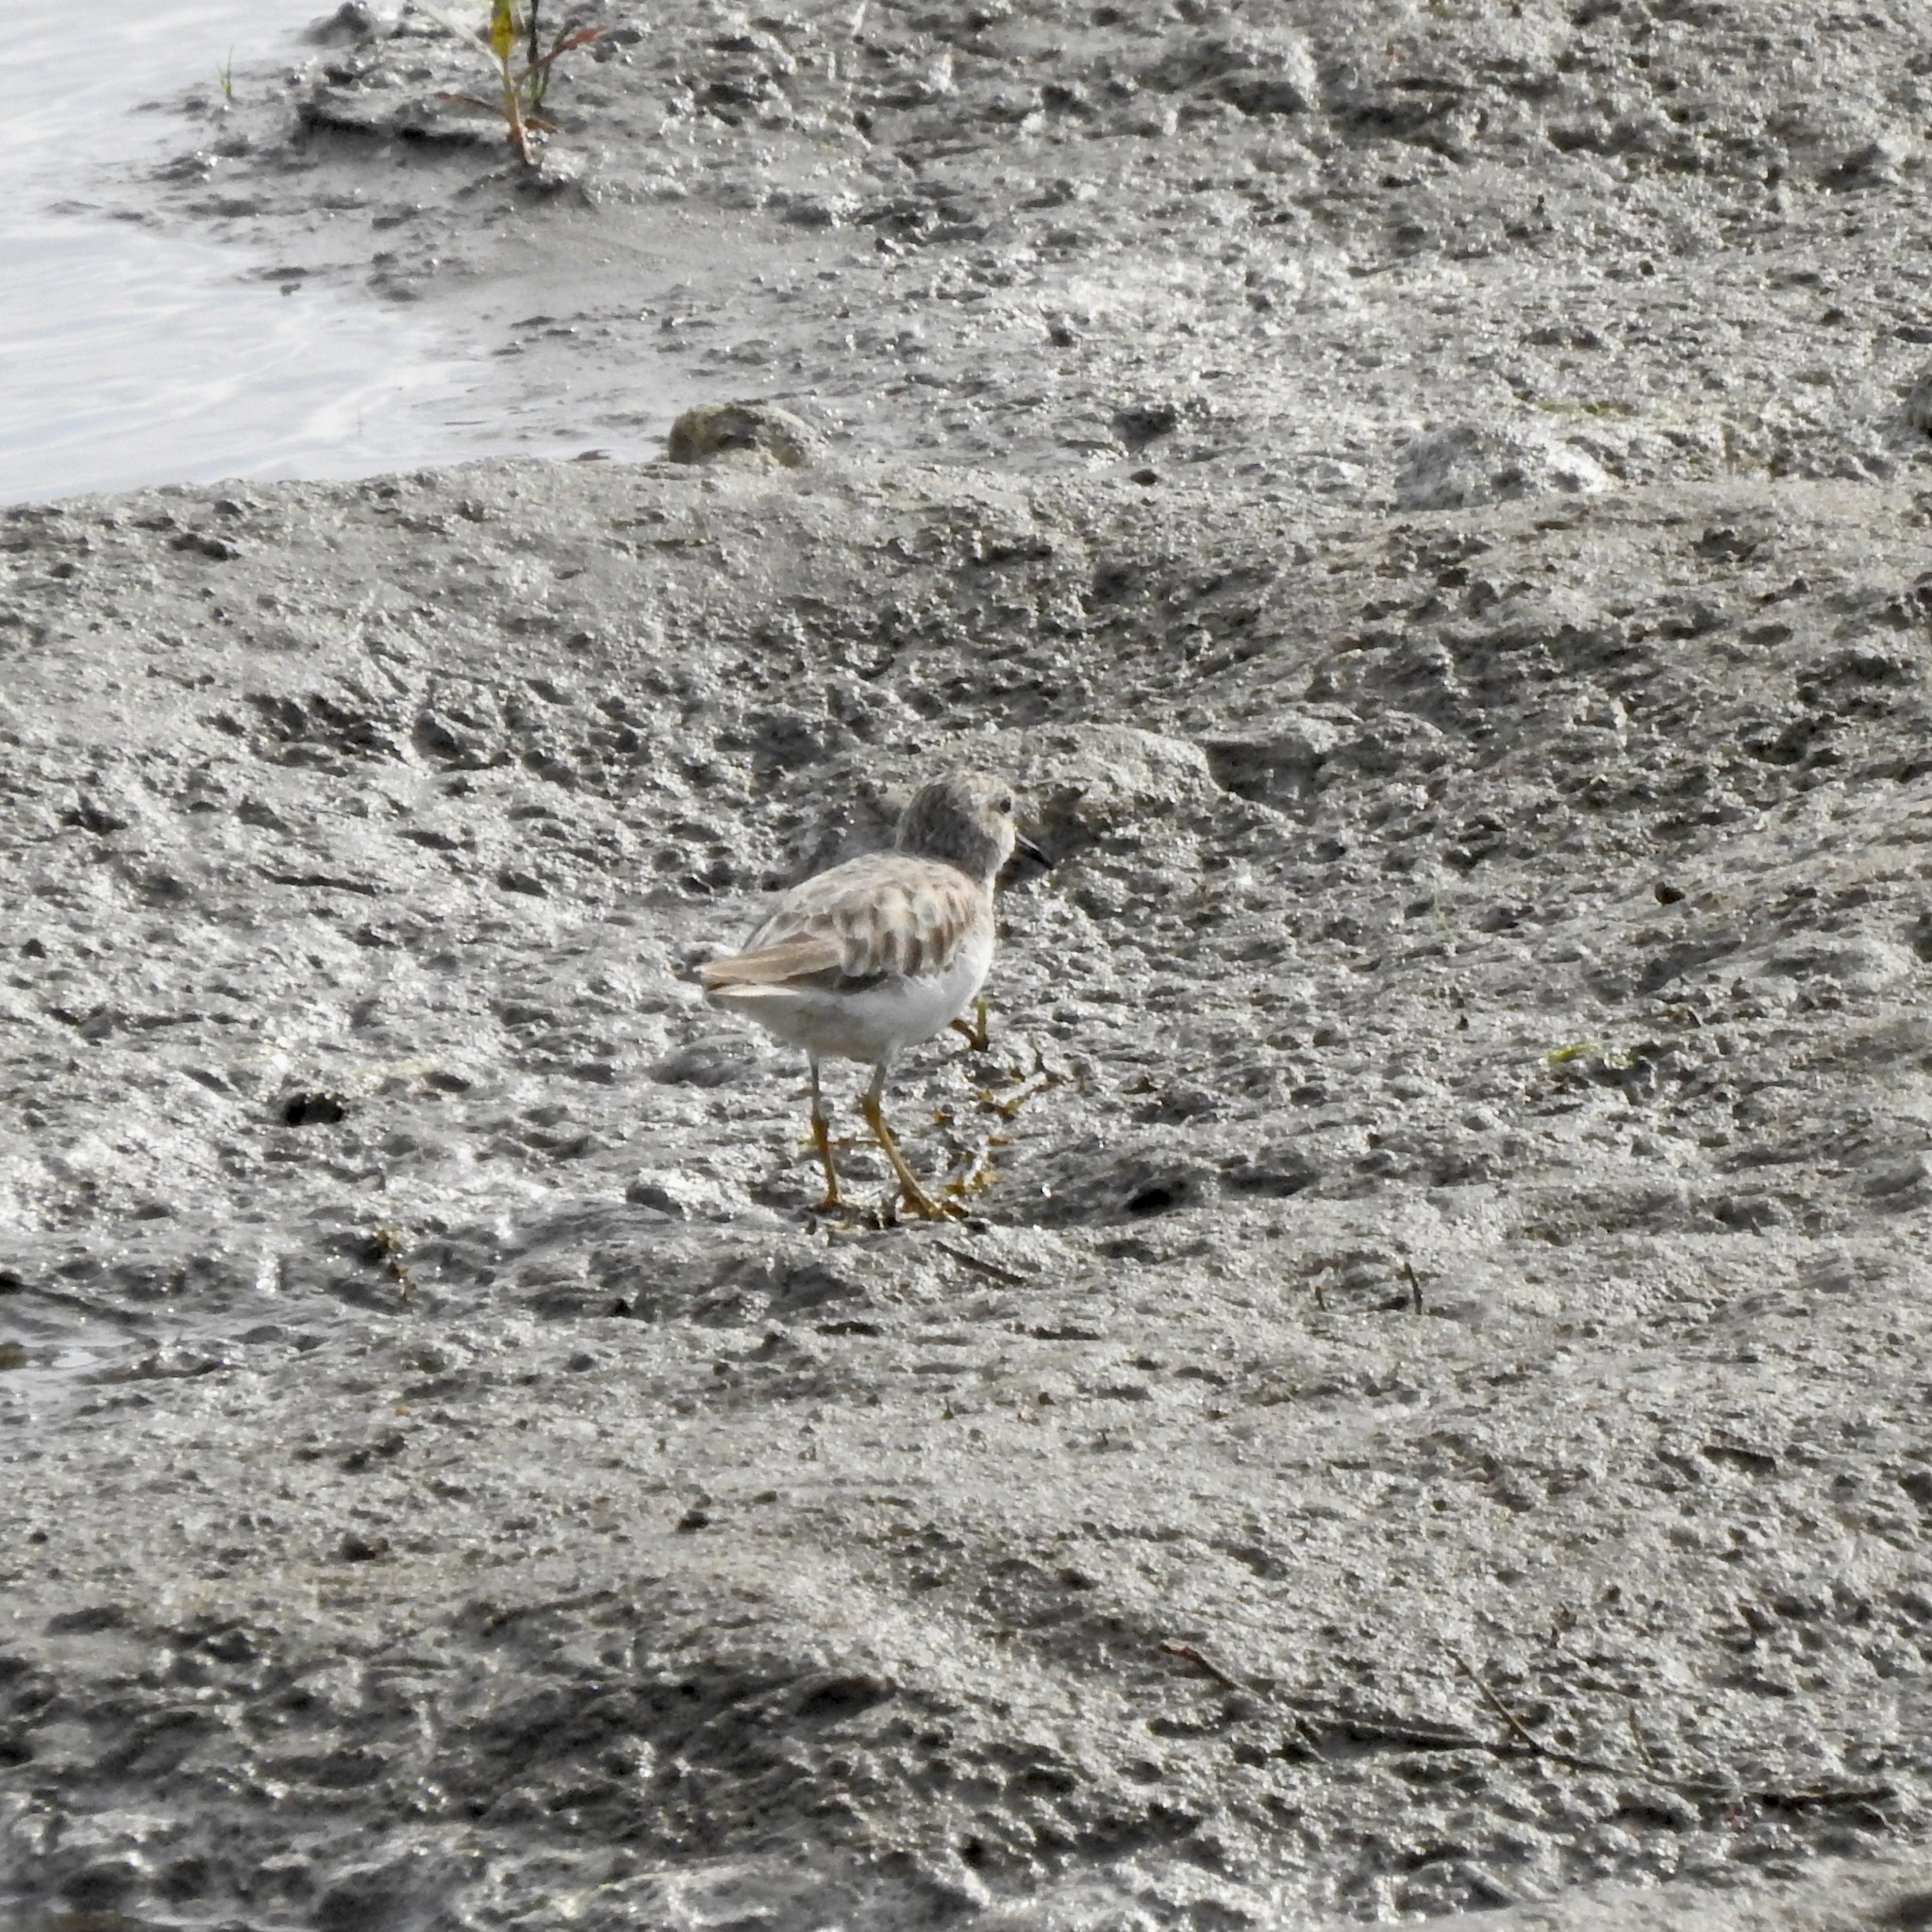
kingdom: Animalia
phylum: Chordata
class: Aves
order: Charadriiformes
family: Scolopacidae
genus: Calidris
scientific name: Calidris minutilla
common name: Least sandpiper
